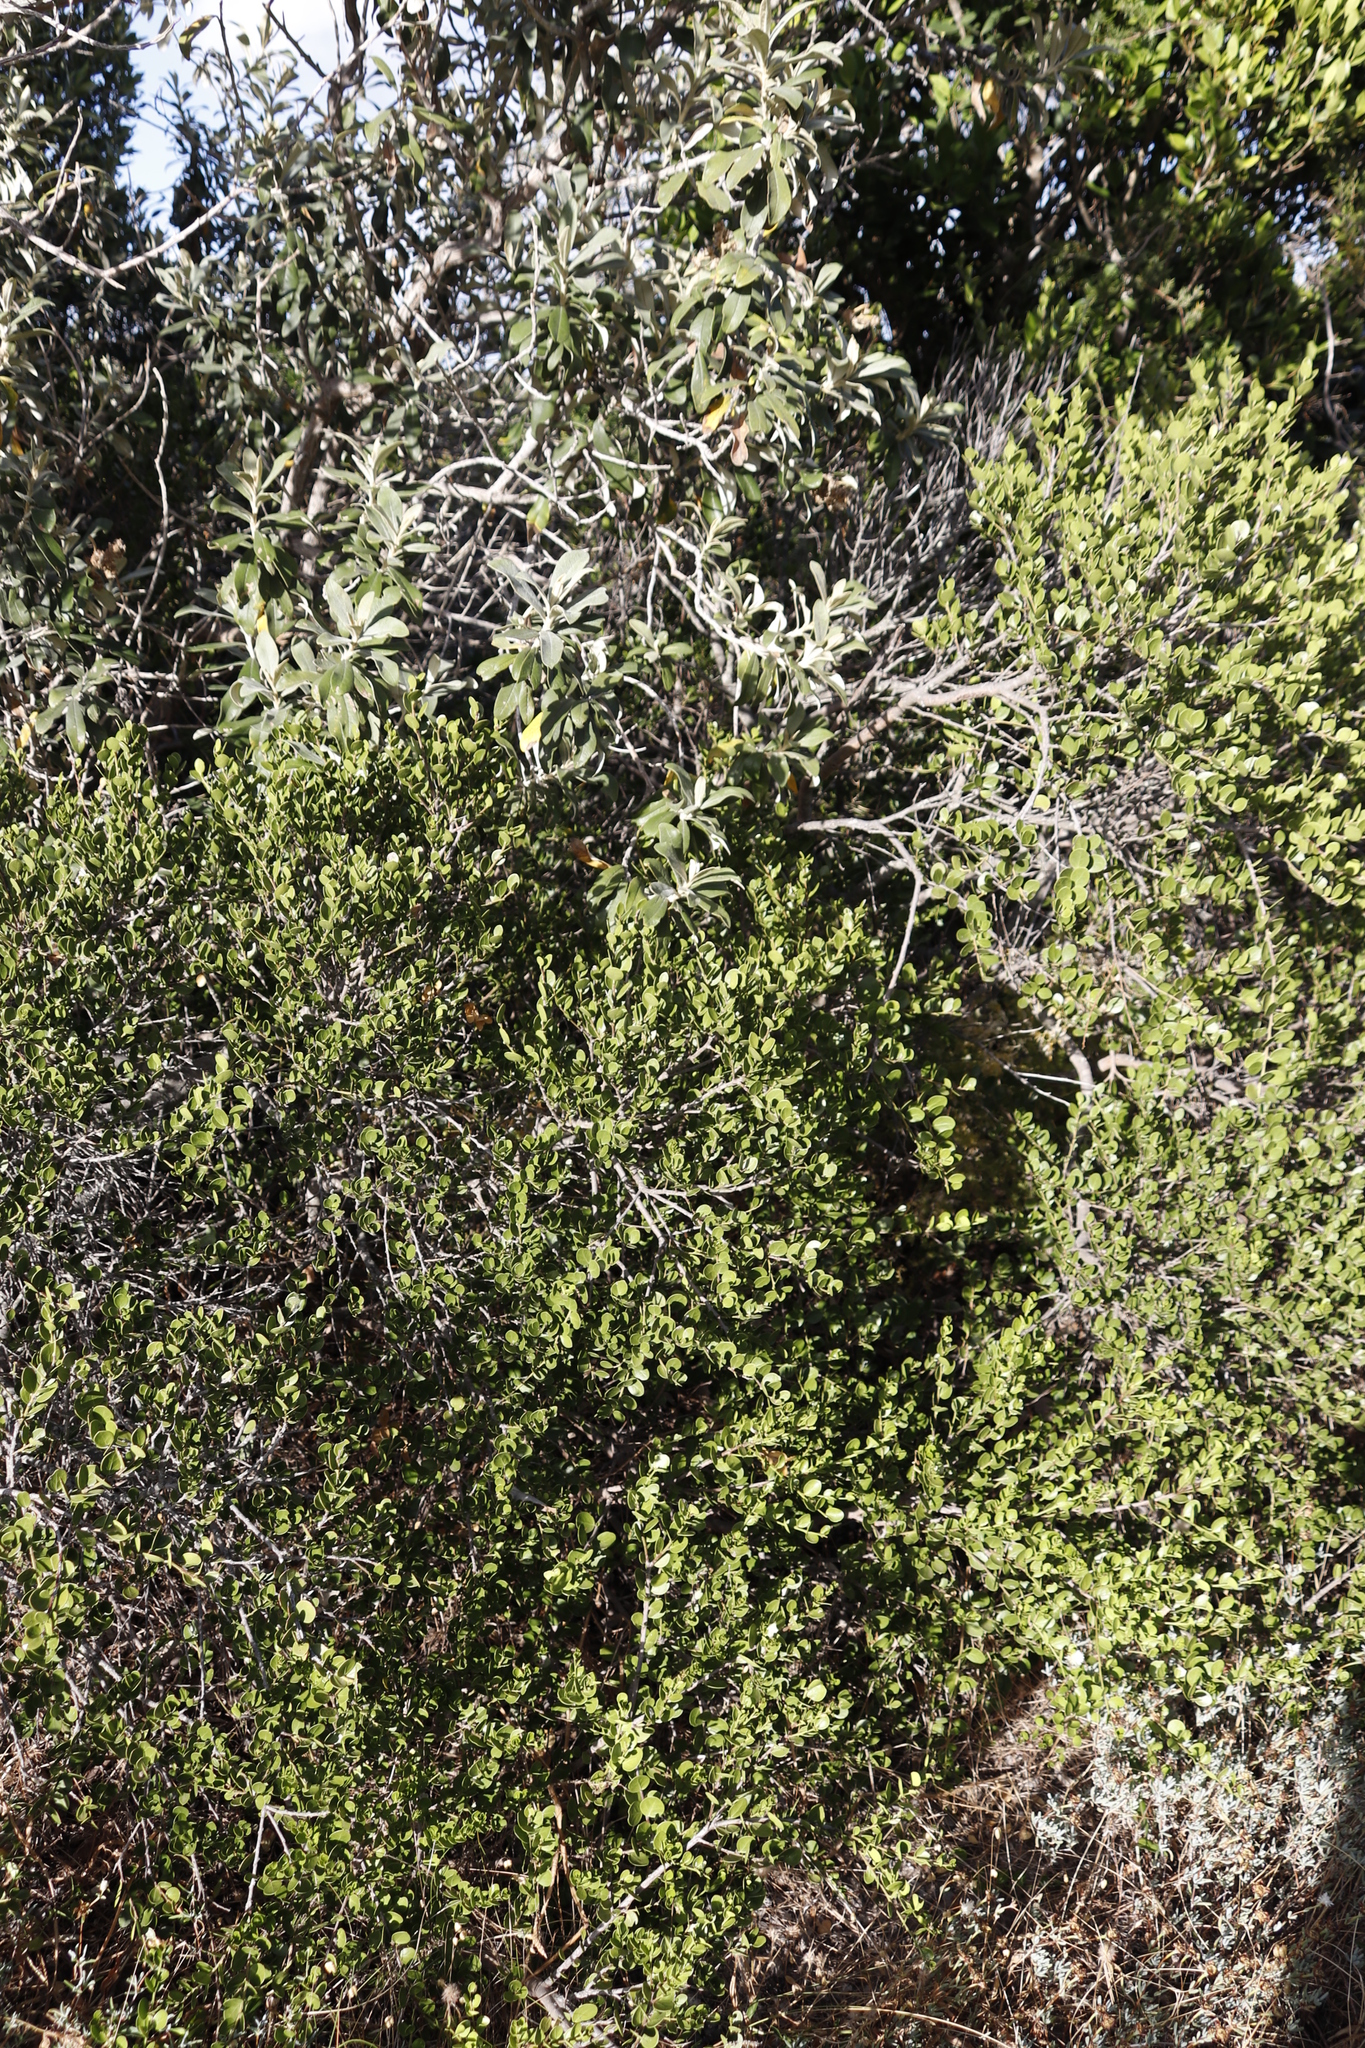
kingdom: Plantae
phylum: Tracheophyta
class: Magnoliopsida
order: Celastrales
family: Celastraceae
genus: Gymnosporia
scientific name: Gymnosporia lucida
